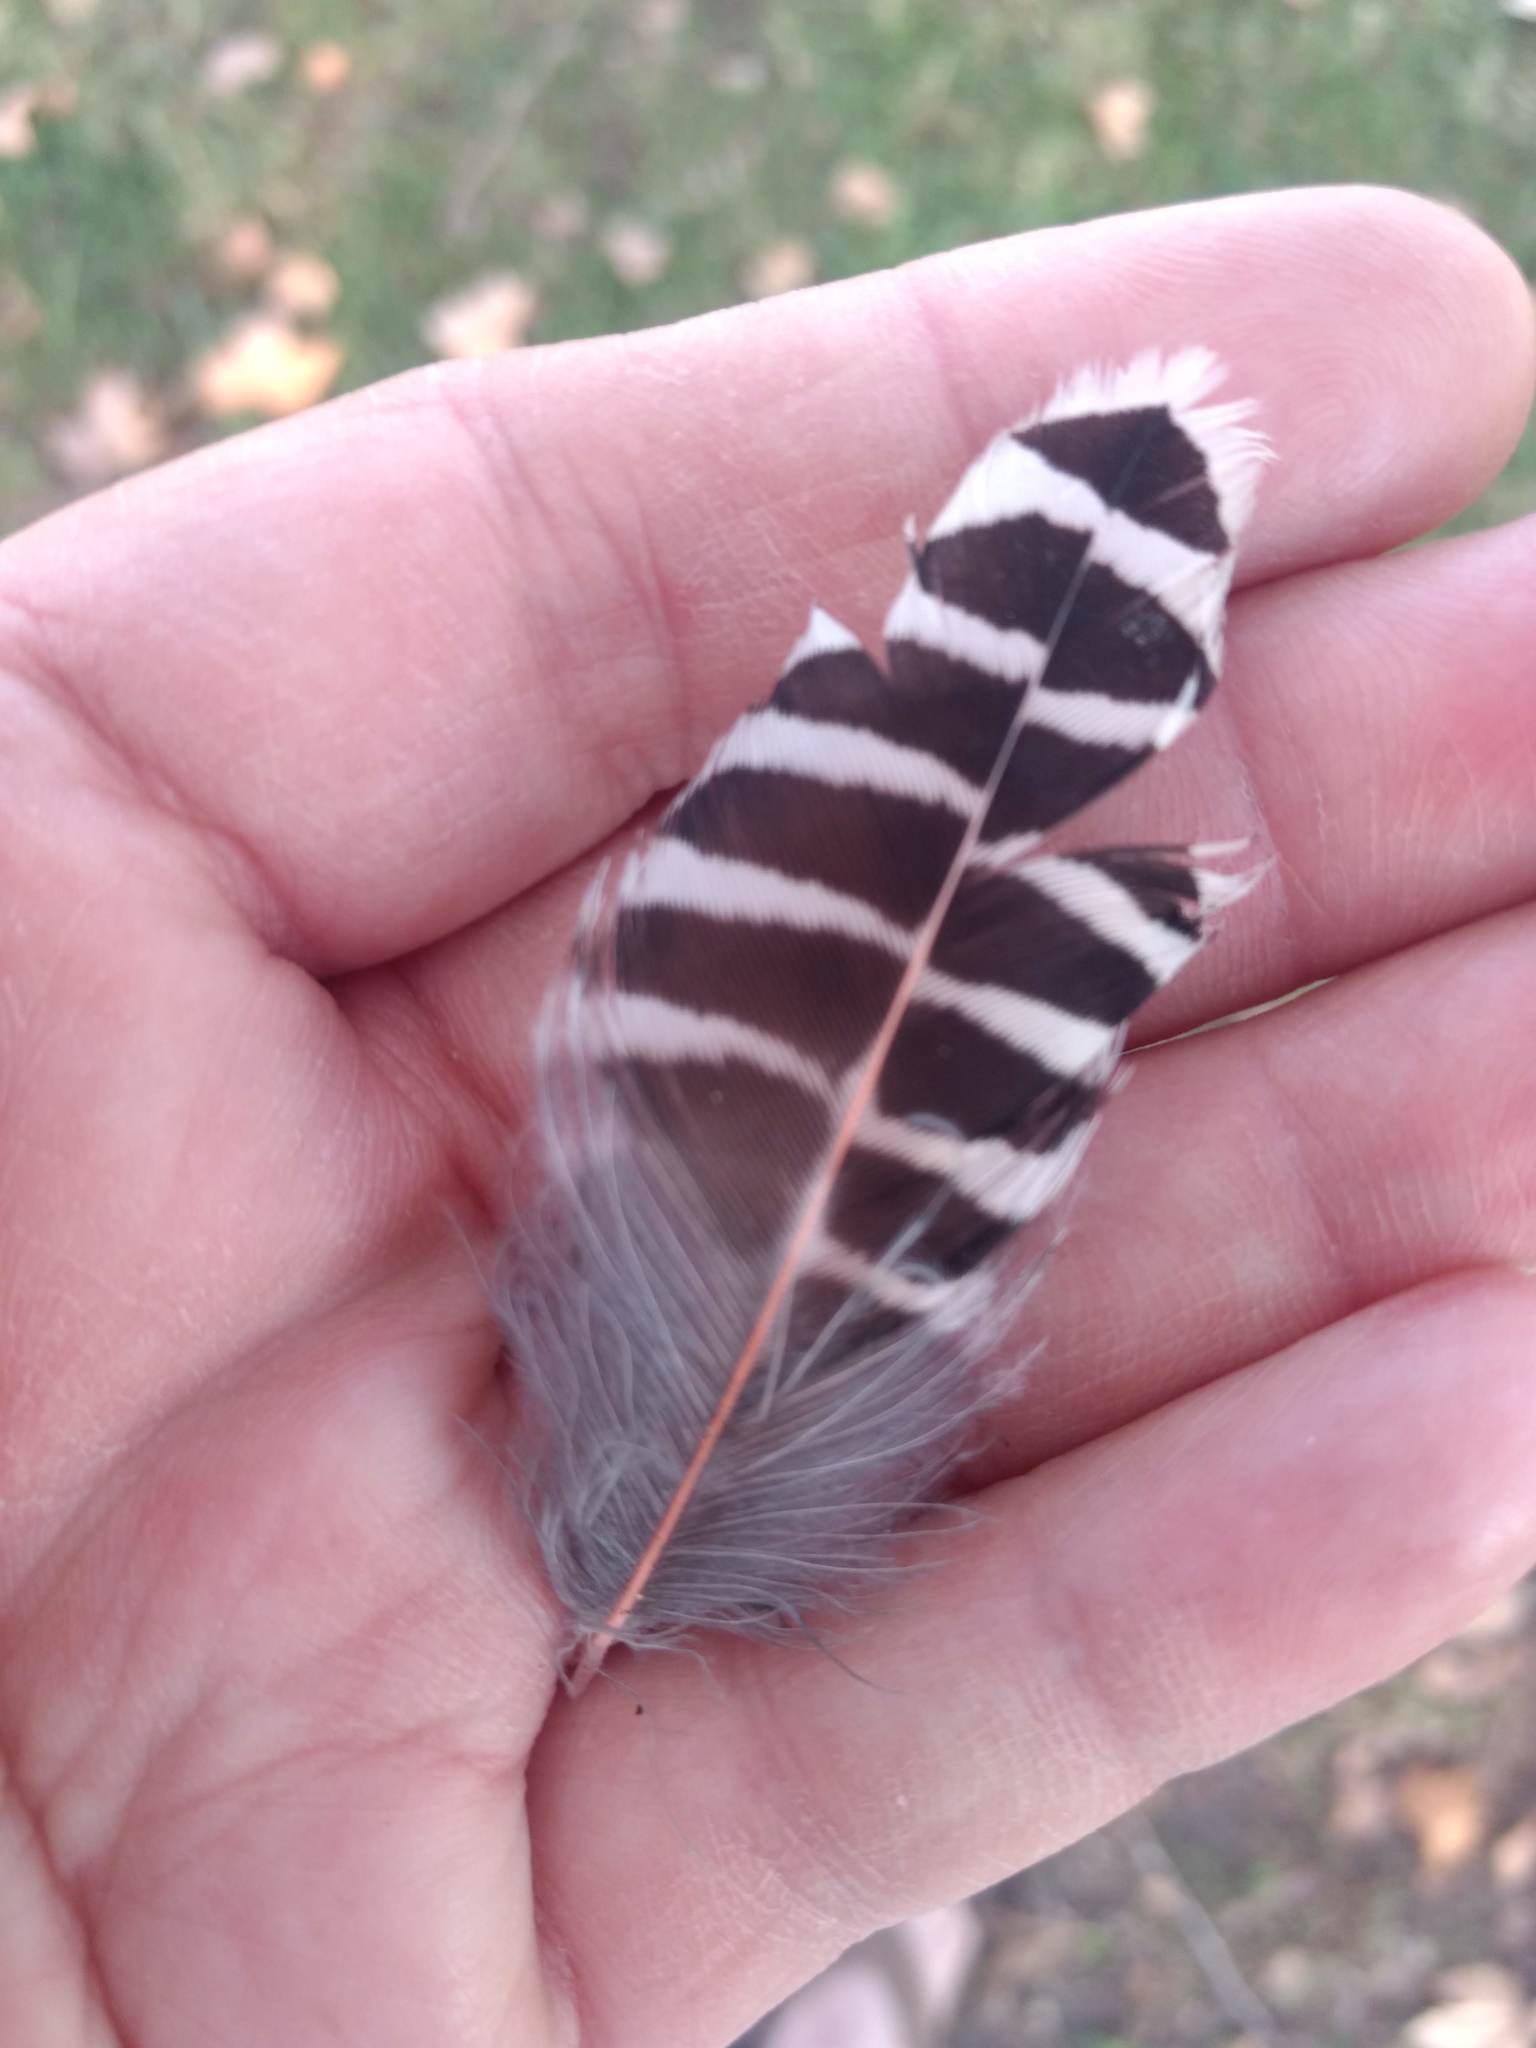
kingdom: Animalia
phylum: Chordata
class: Aves
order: Piciformes
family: Picidae
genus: Colaptes
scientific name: Colaptes auratus
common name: Northern flicker
